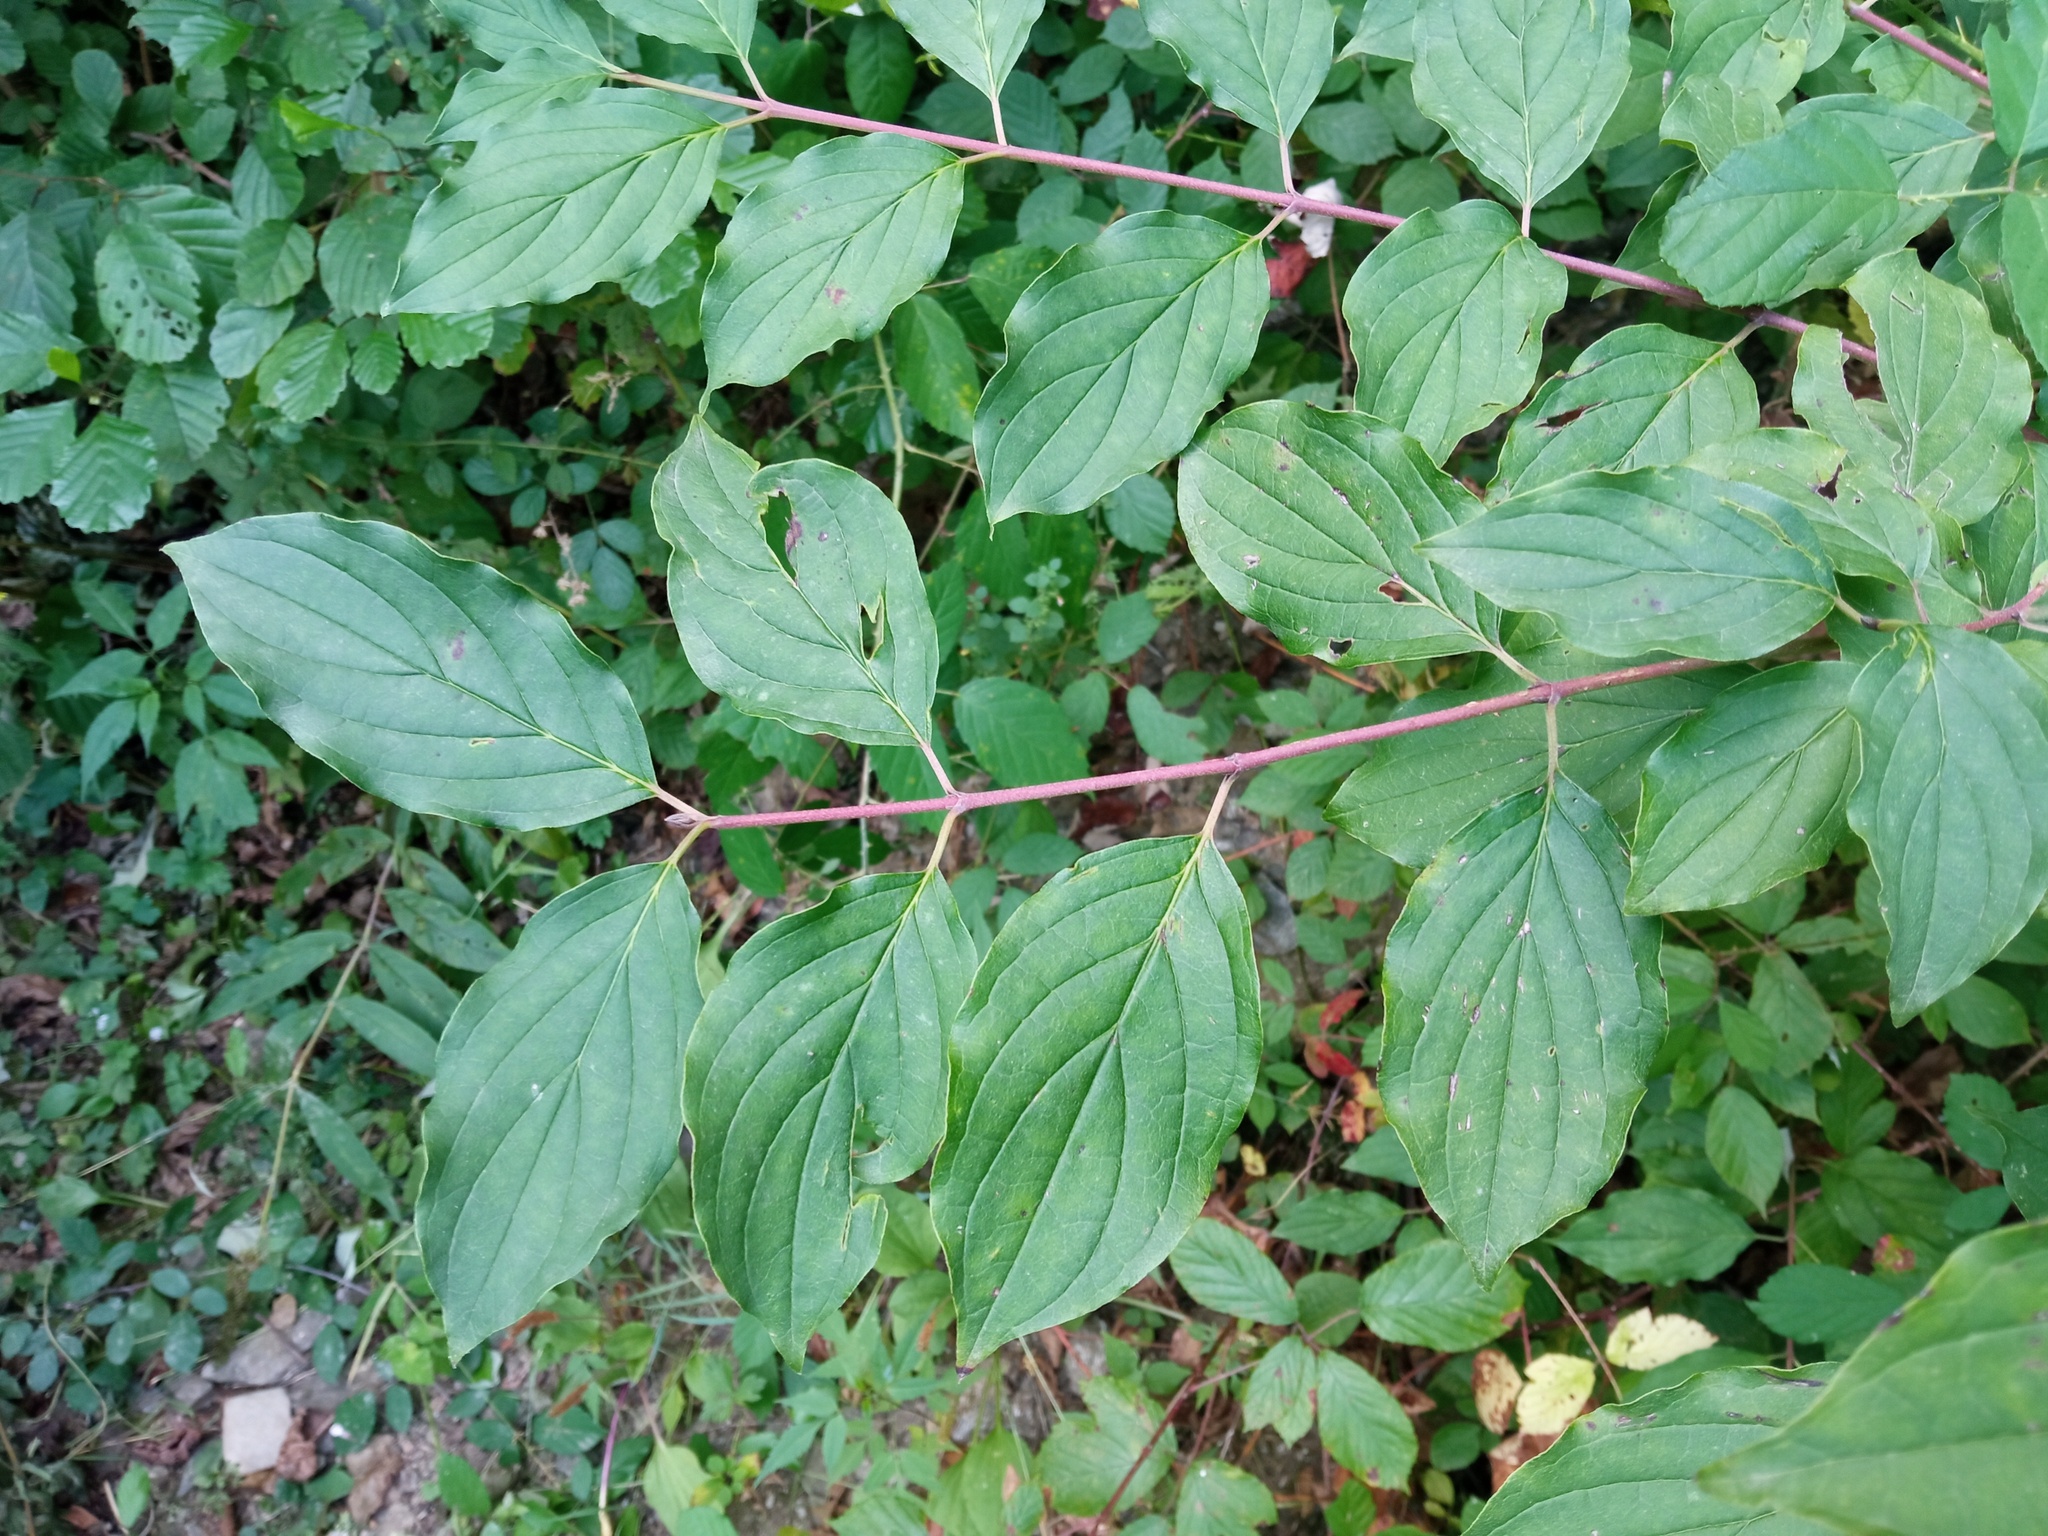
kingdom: Plantae
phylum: Tracheophyta
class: Magnoliopsida
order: Cornales
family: Cornaceae
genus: Cornus
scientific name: Cornus sanguinea
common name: Dogwood
